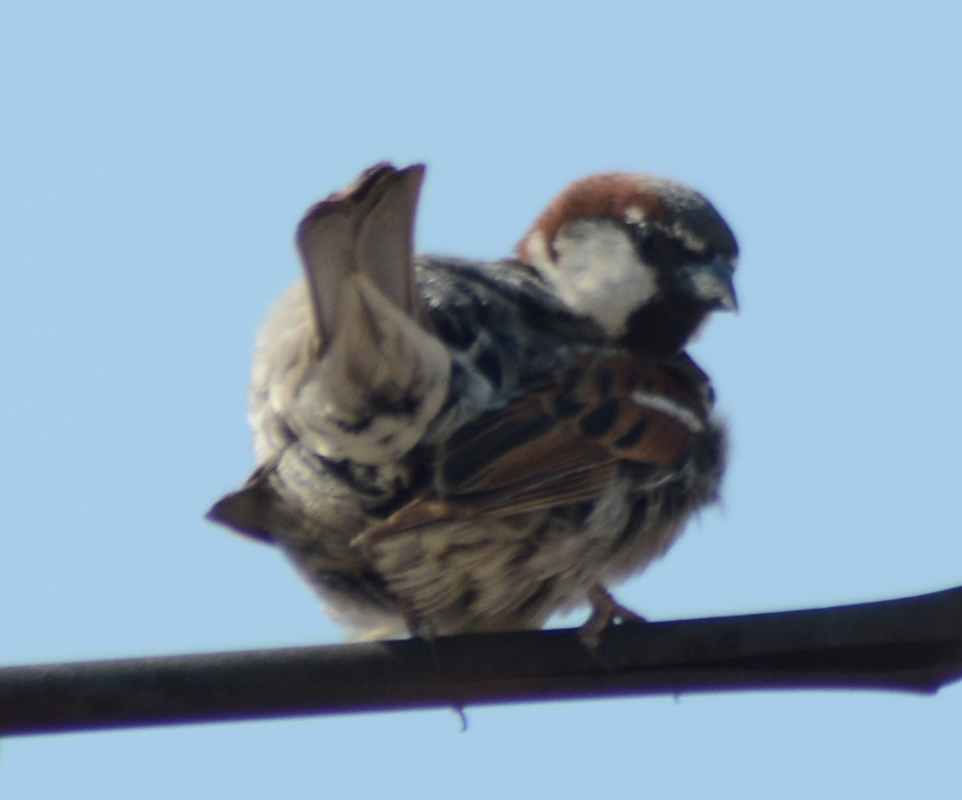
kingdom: Animalia
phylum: Chordata
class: Aves
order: Passeriformes
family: Passeridae
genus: Passer
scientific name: Passer domesticus
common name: House sparrow
